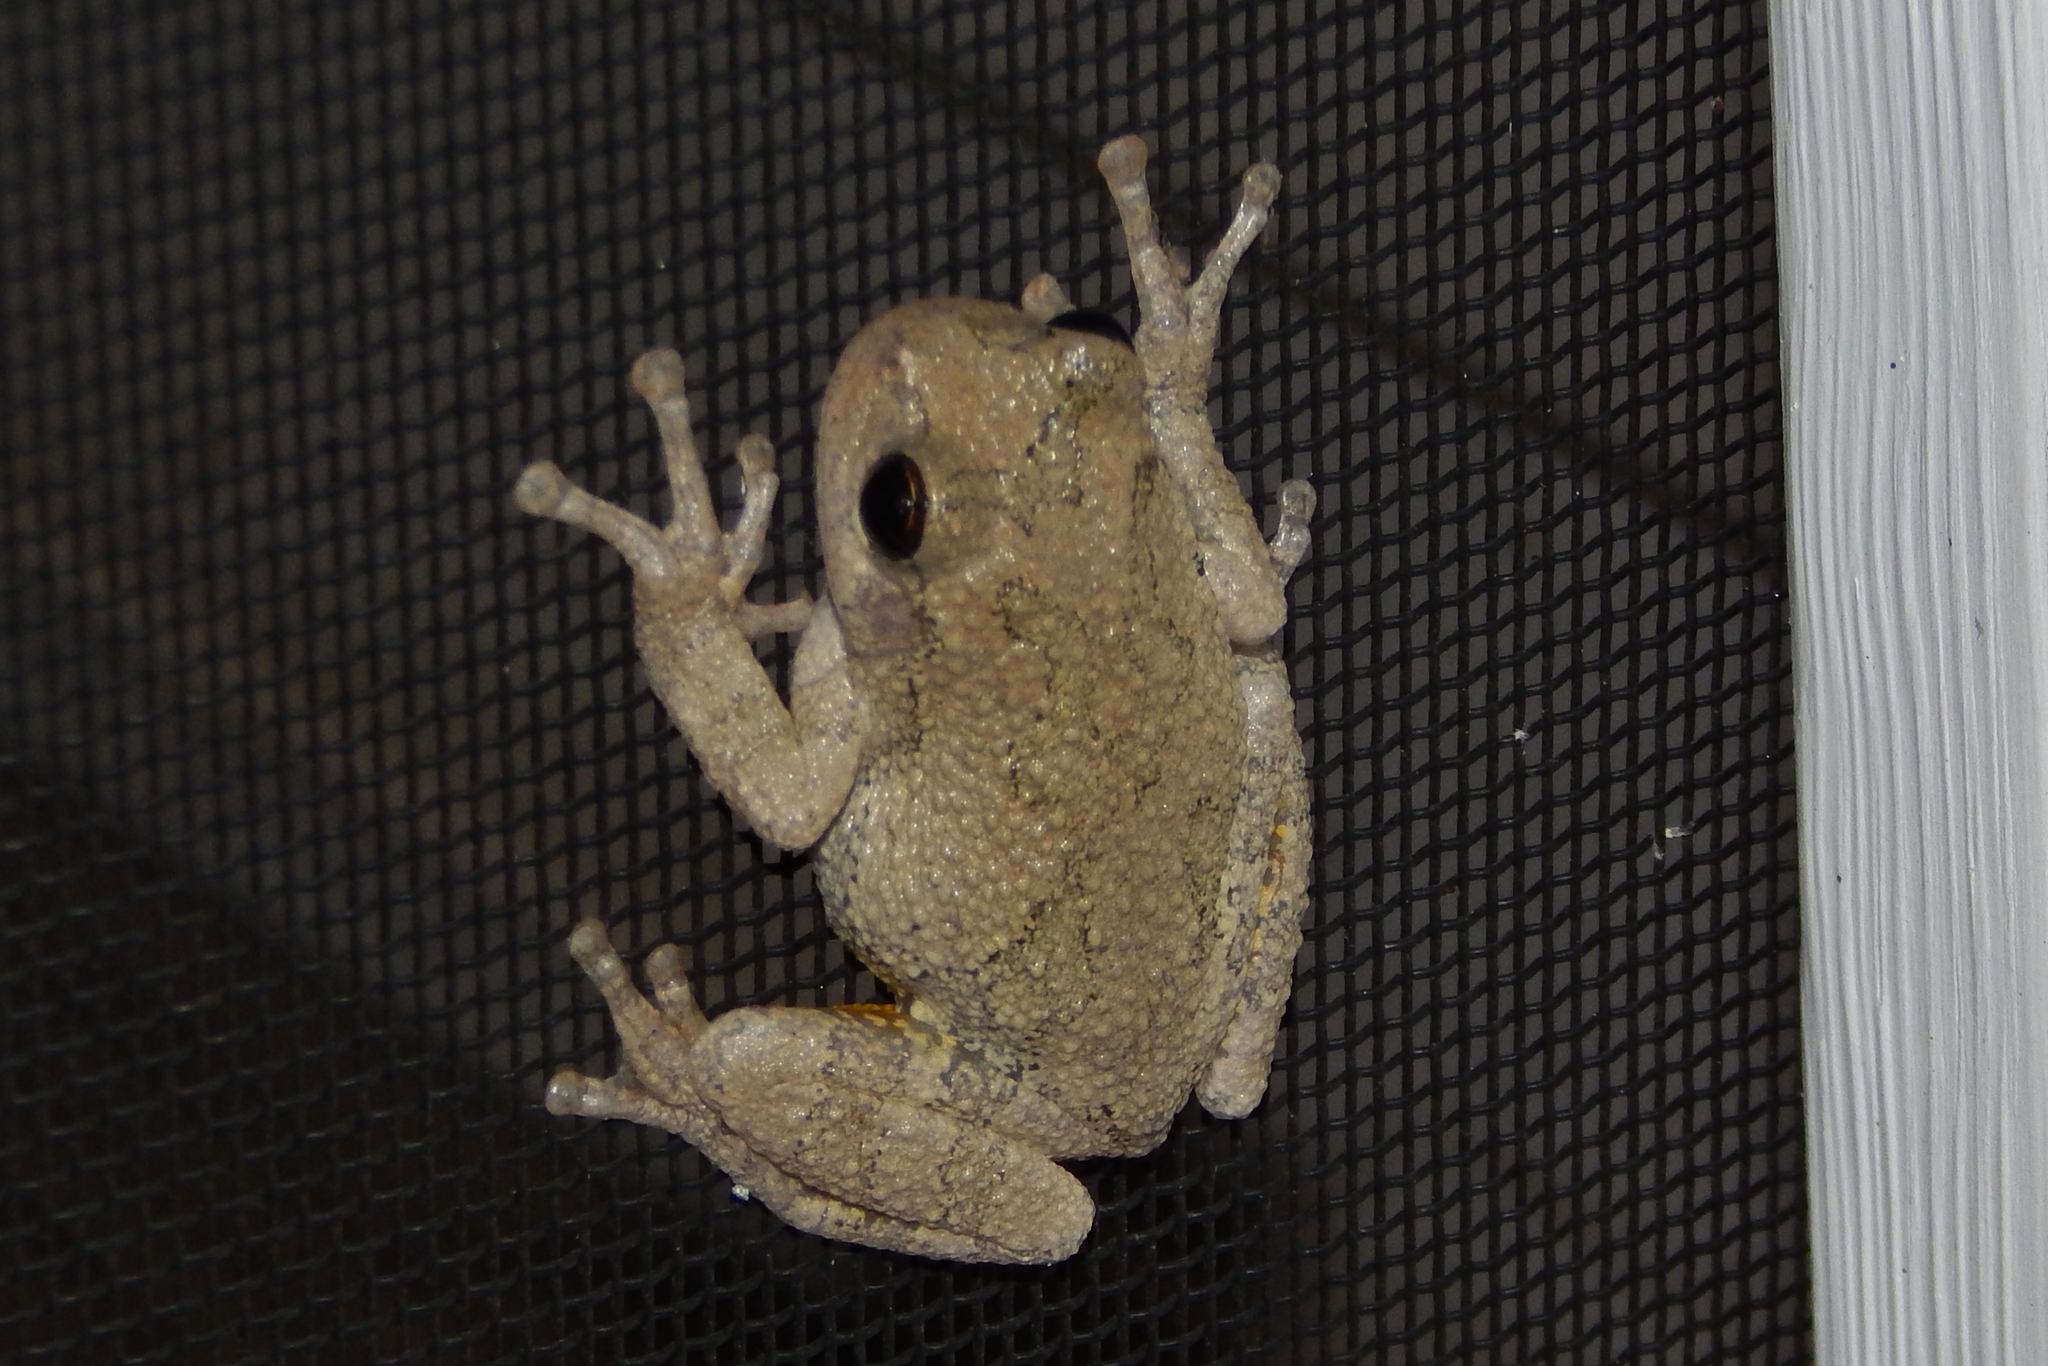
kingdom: Animalia
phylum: Chordata
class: Amphibia
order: Anura
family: Hylidae
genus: Hyla
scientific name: Hyla
